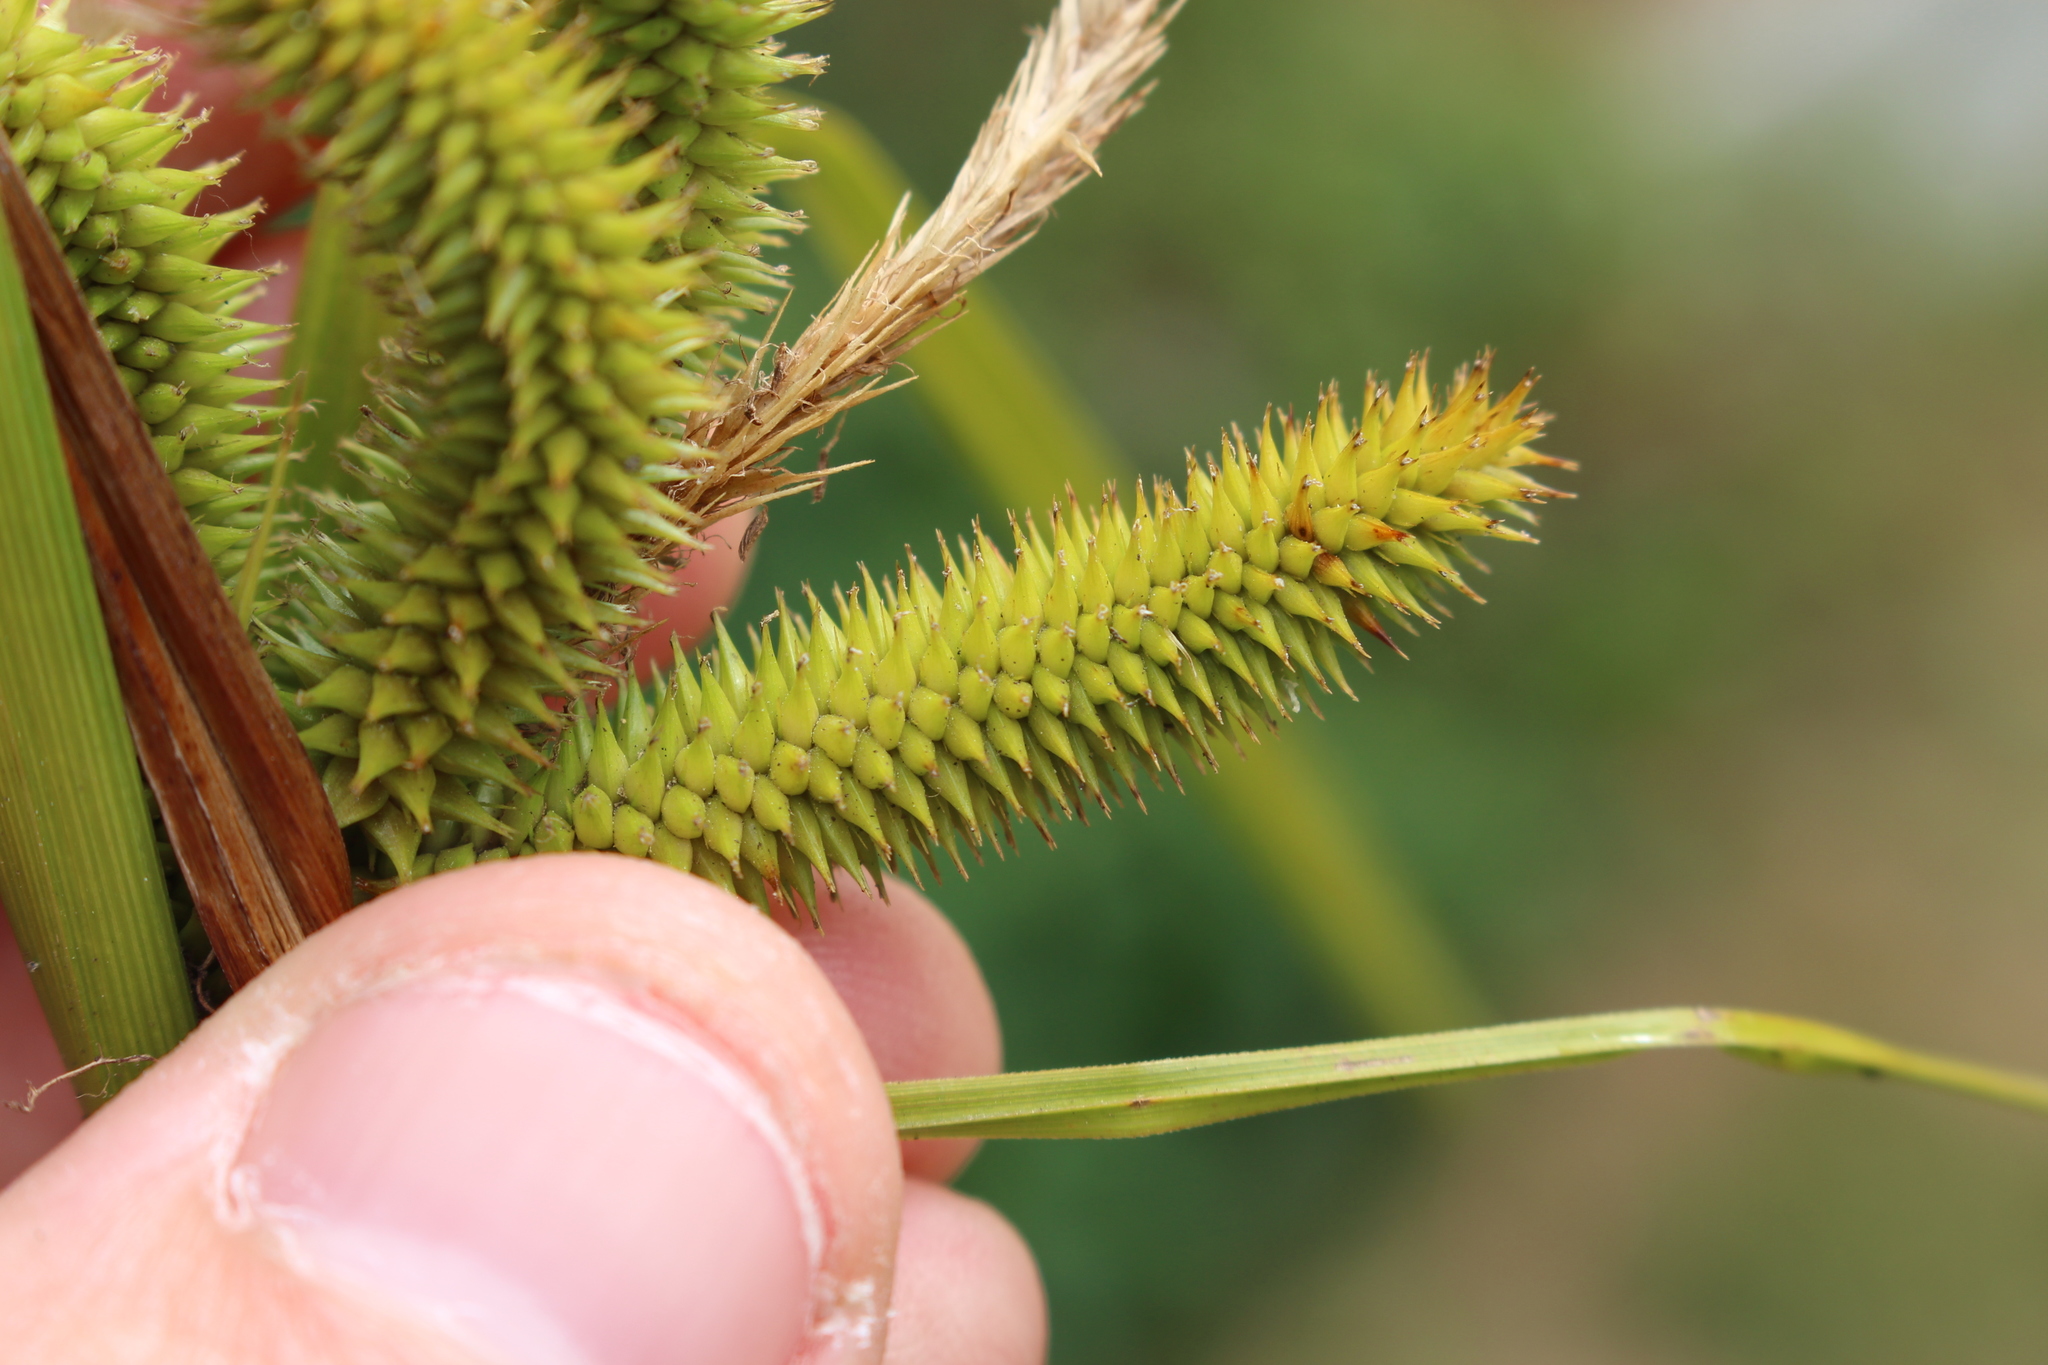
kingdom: Plantae
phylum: Tracheophyta
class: Liliopsida
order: Poales
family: Cyperaceae
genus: Carex
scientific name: Carex maorica
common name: Maori sedge
